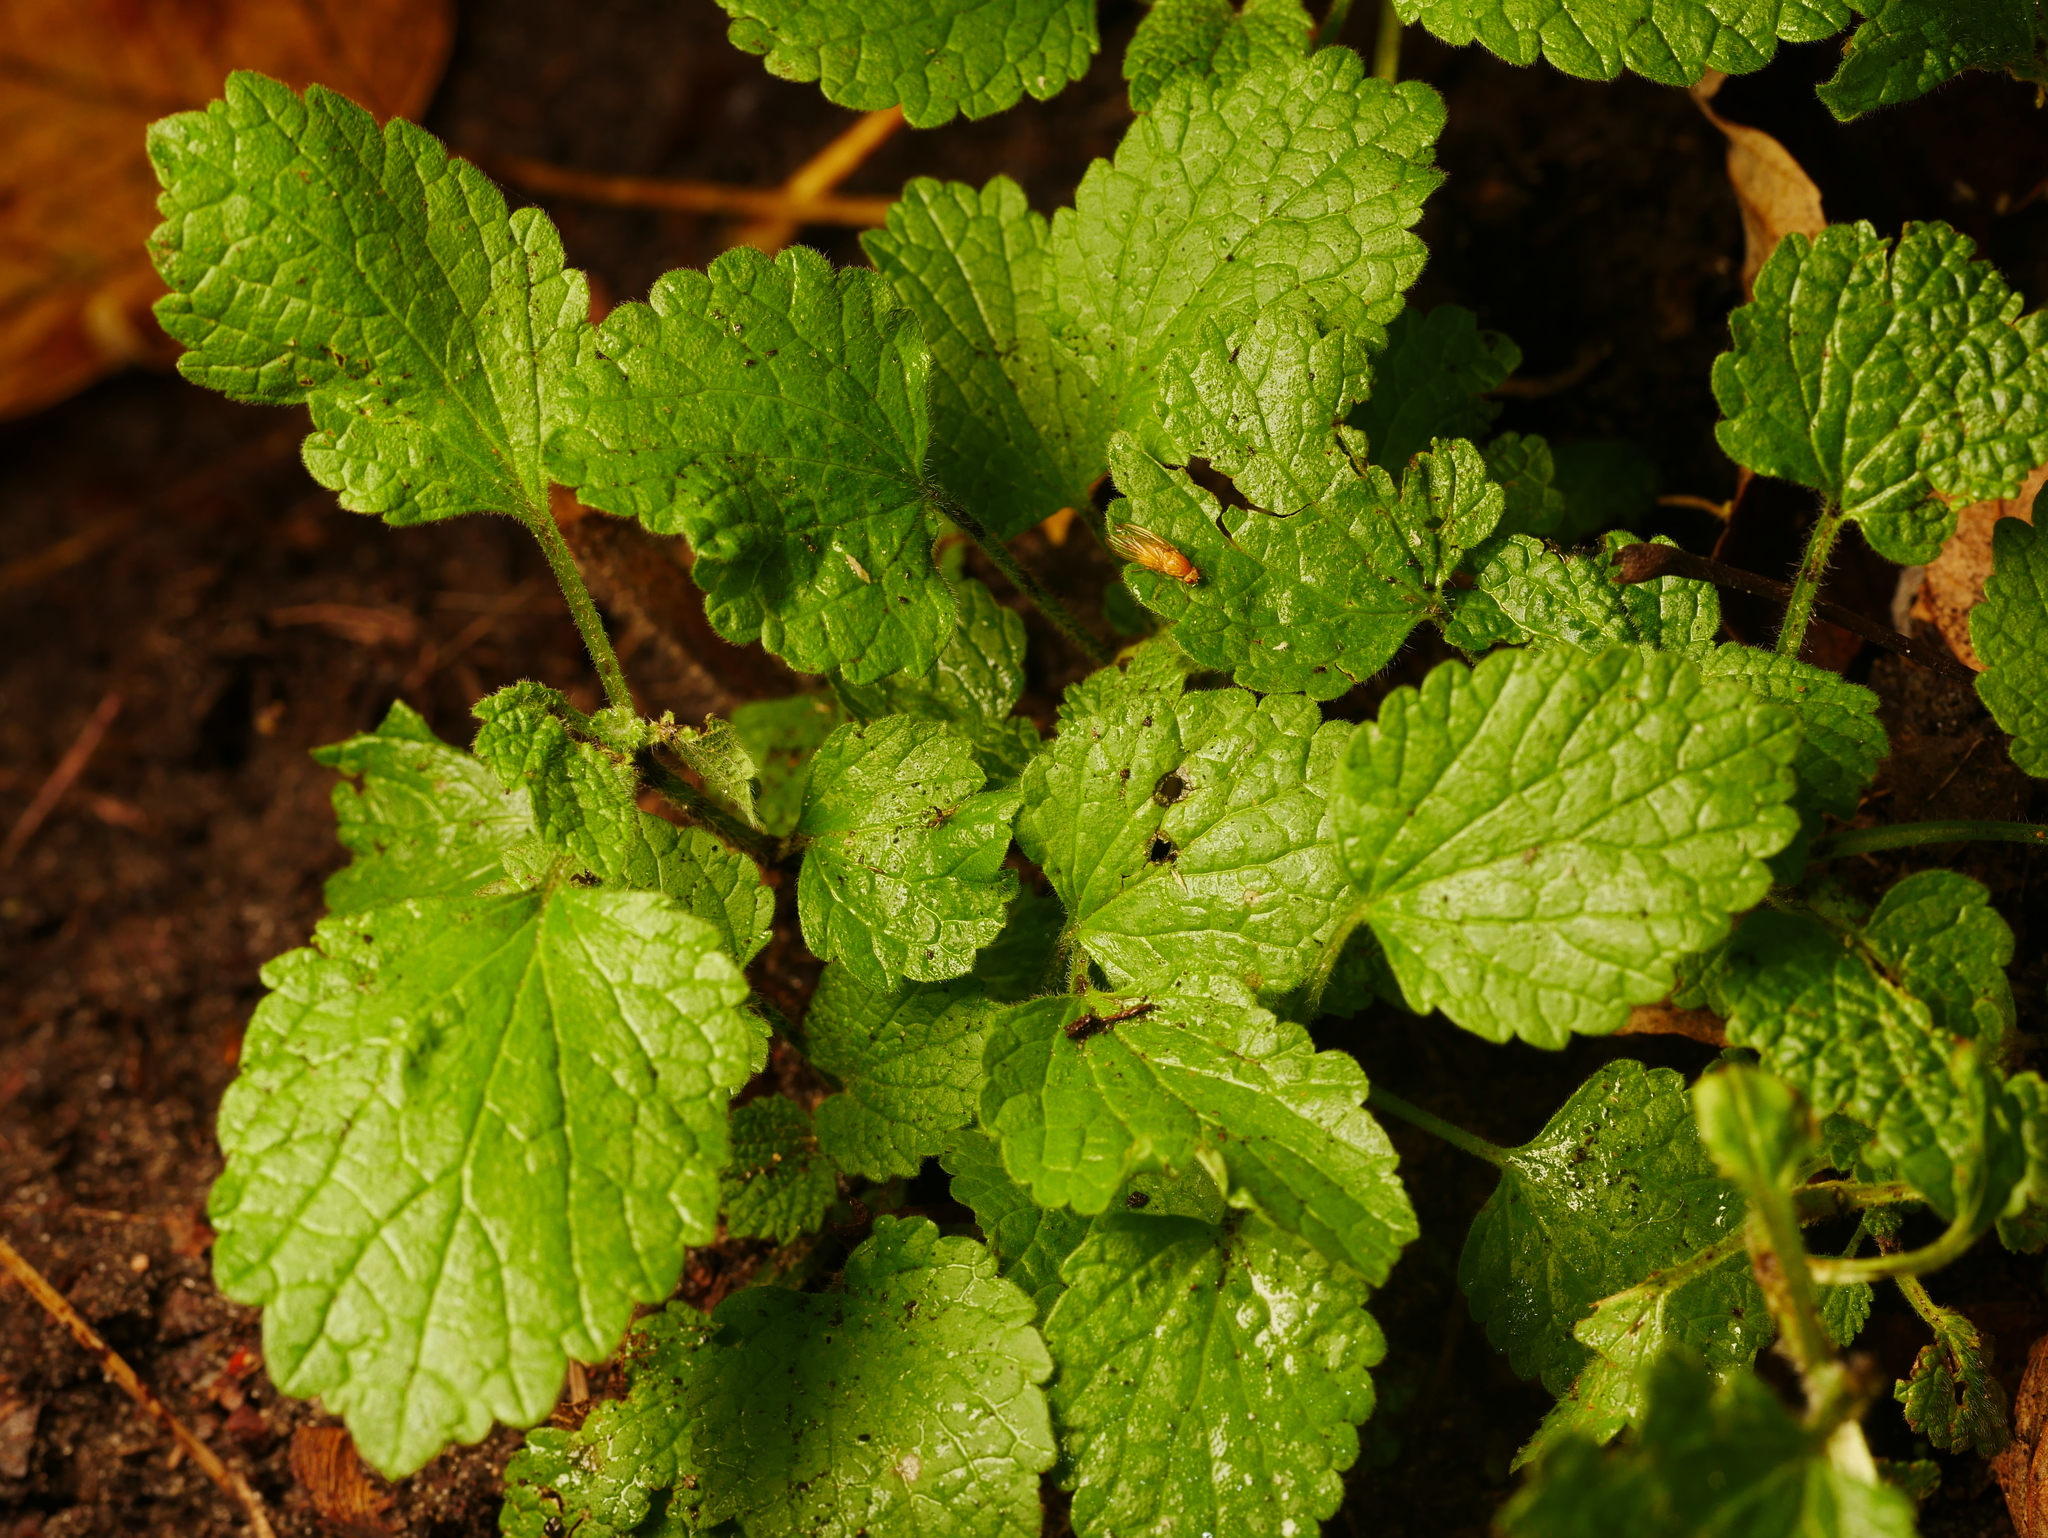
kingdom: Plantae
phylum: Tracheophyta
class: Magnoliopsida
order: Lamiales
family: Lamiaceae
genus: Ballota
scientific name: Ballota nigra
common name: Black horehound
